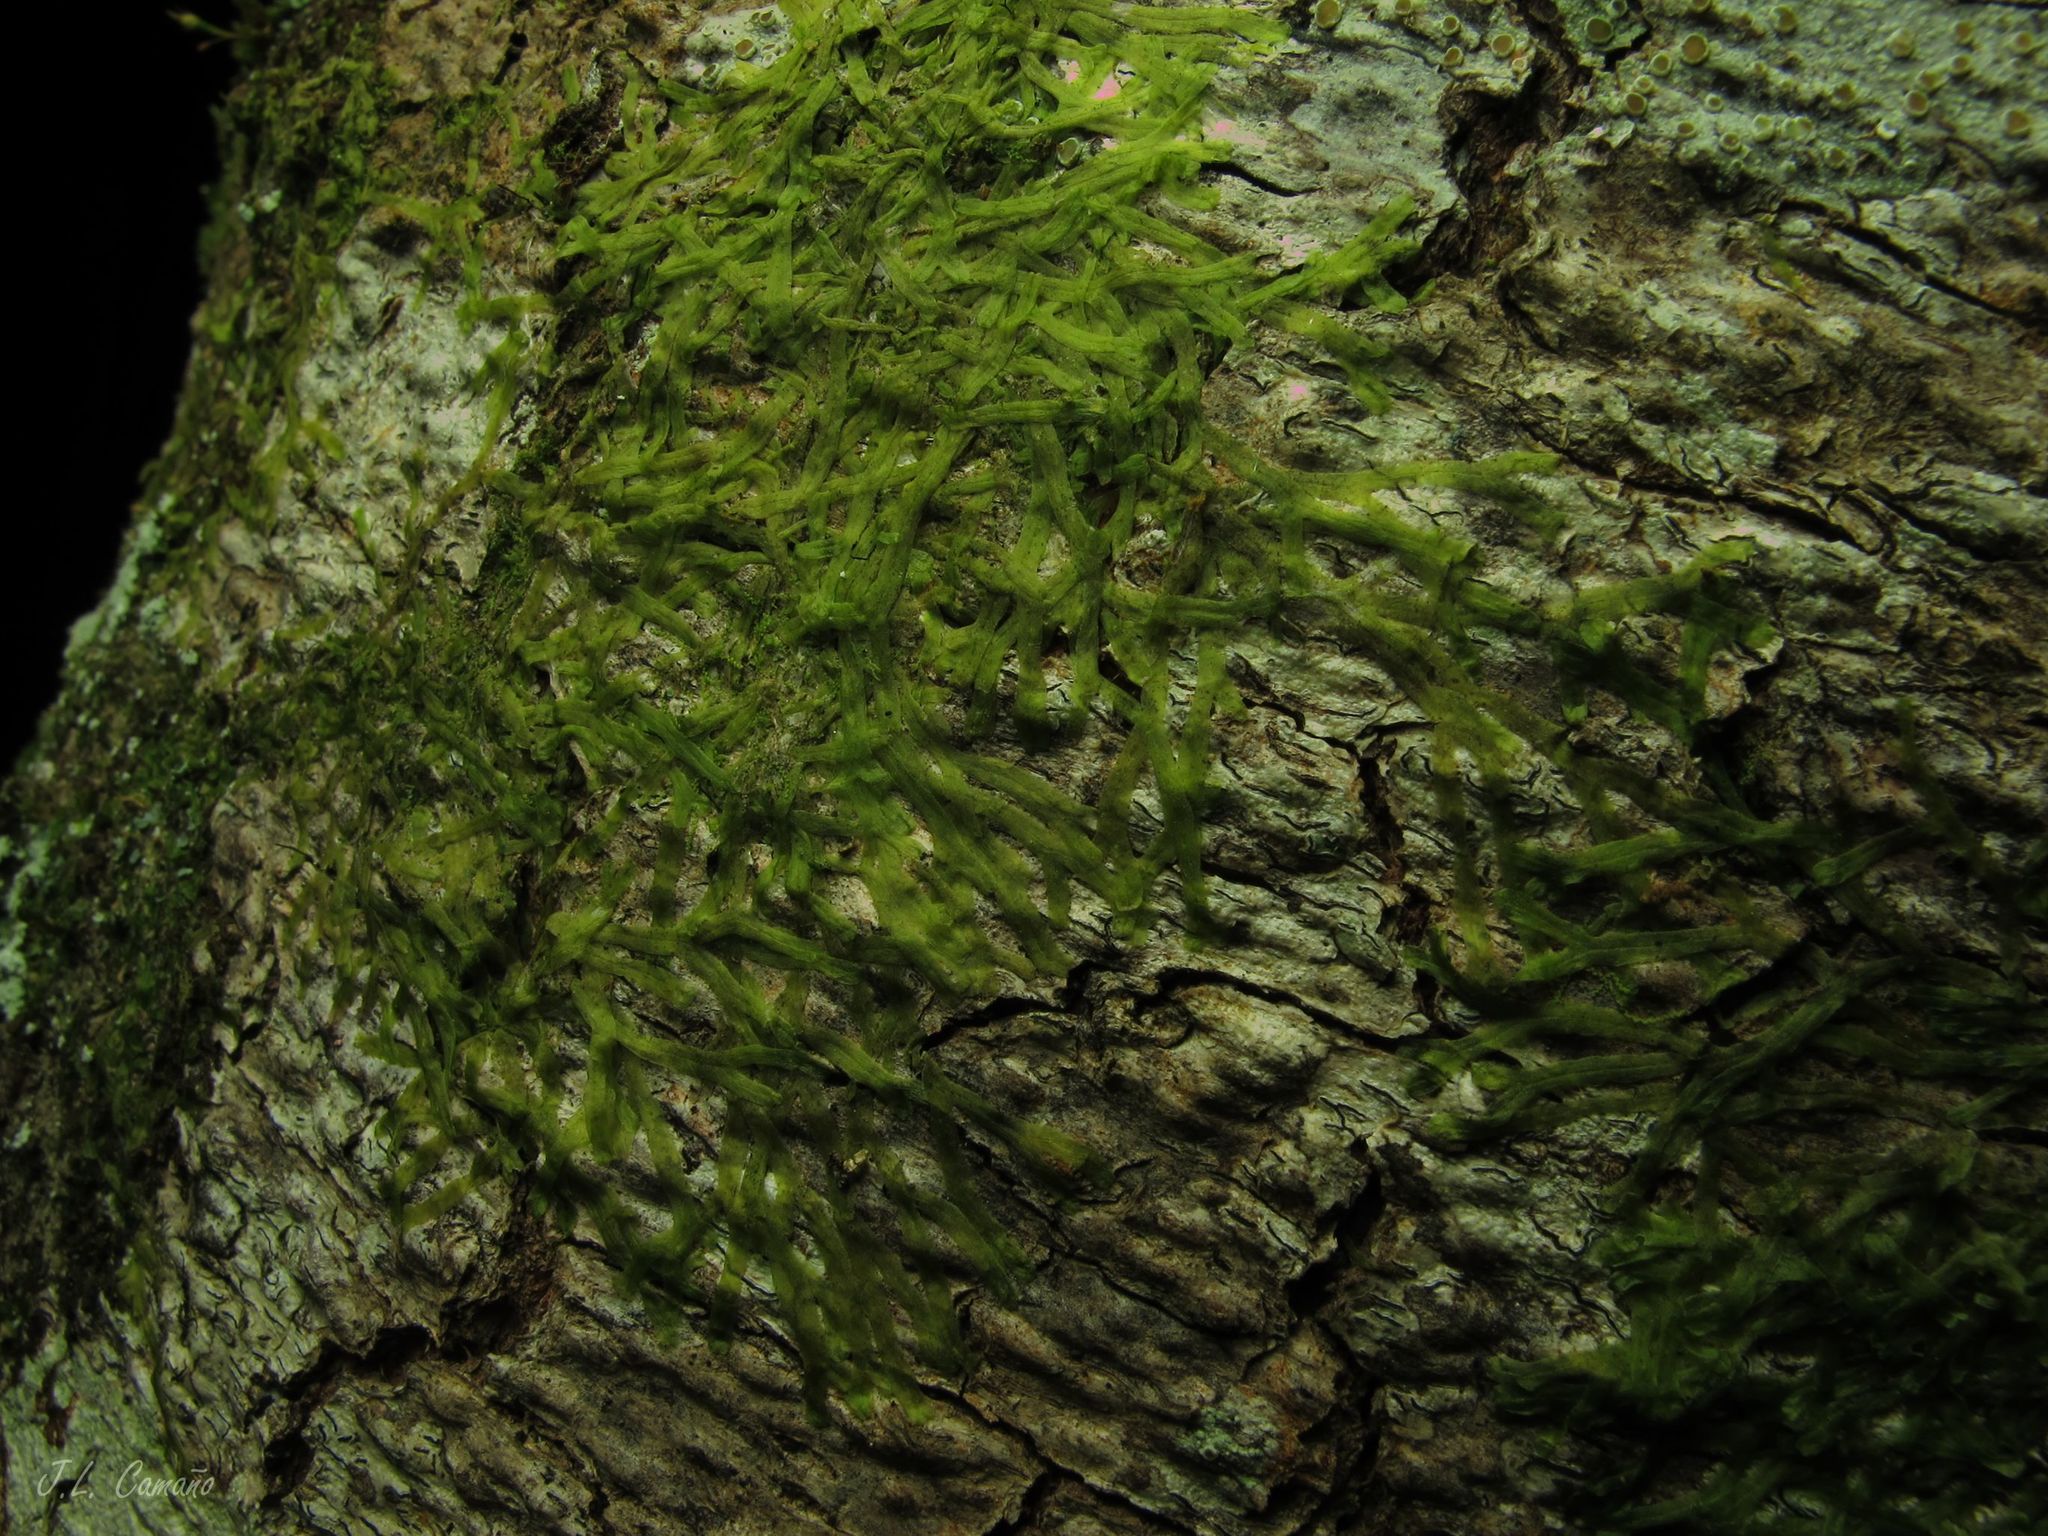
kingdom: Plantae
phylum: Marchantiophyta
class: Jungermanniopsida
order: Metzgeriales
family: Metzgeriaceae
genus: Metzgeria
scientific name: Metzgeria furcata
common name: Forked veilwort
